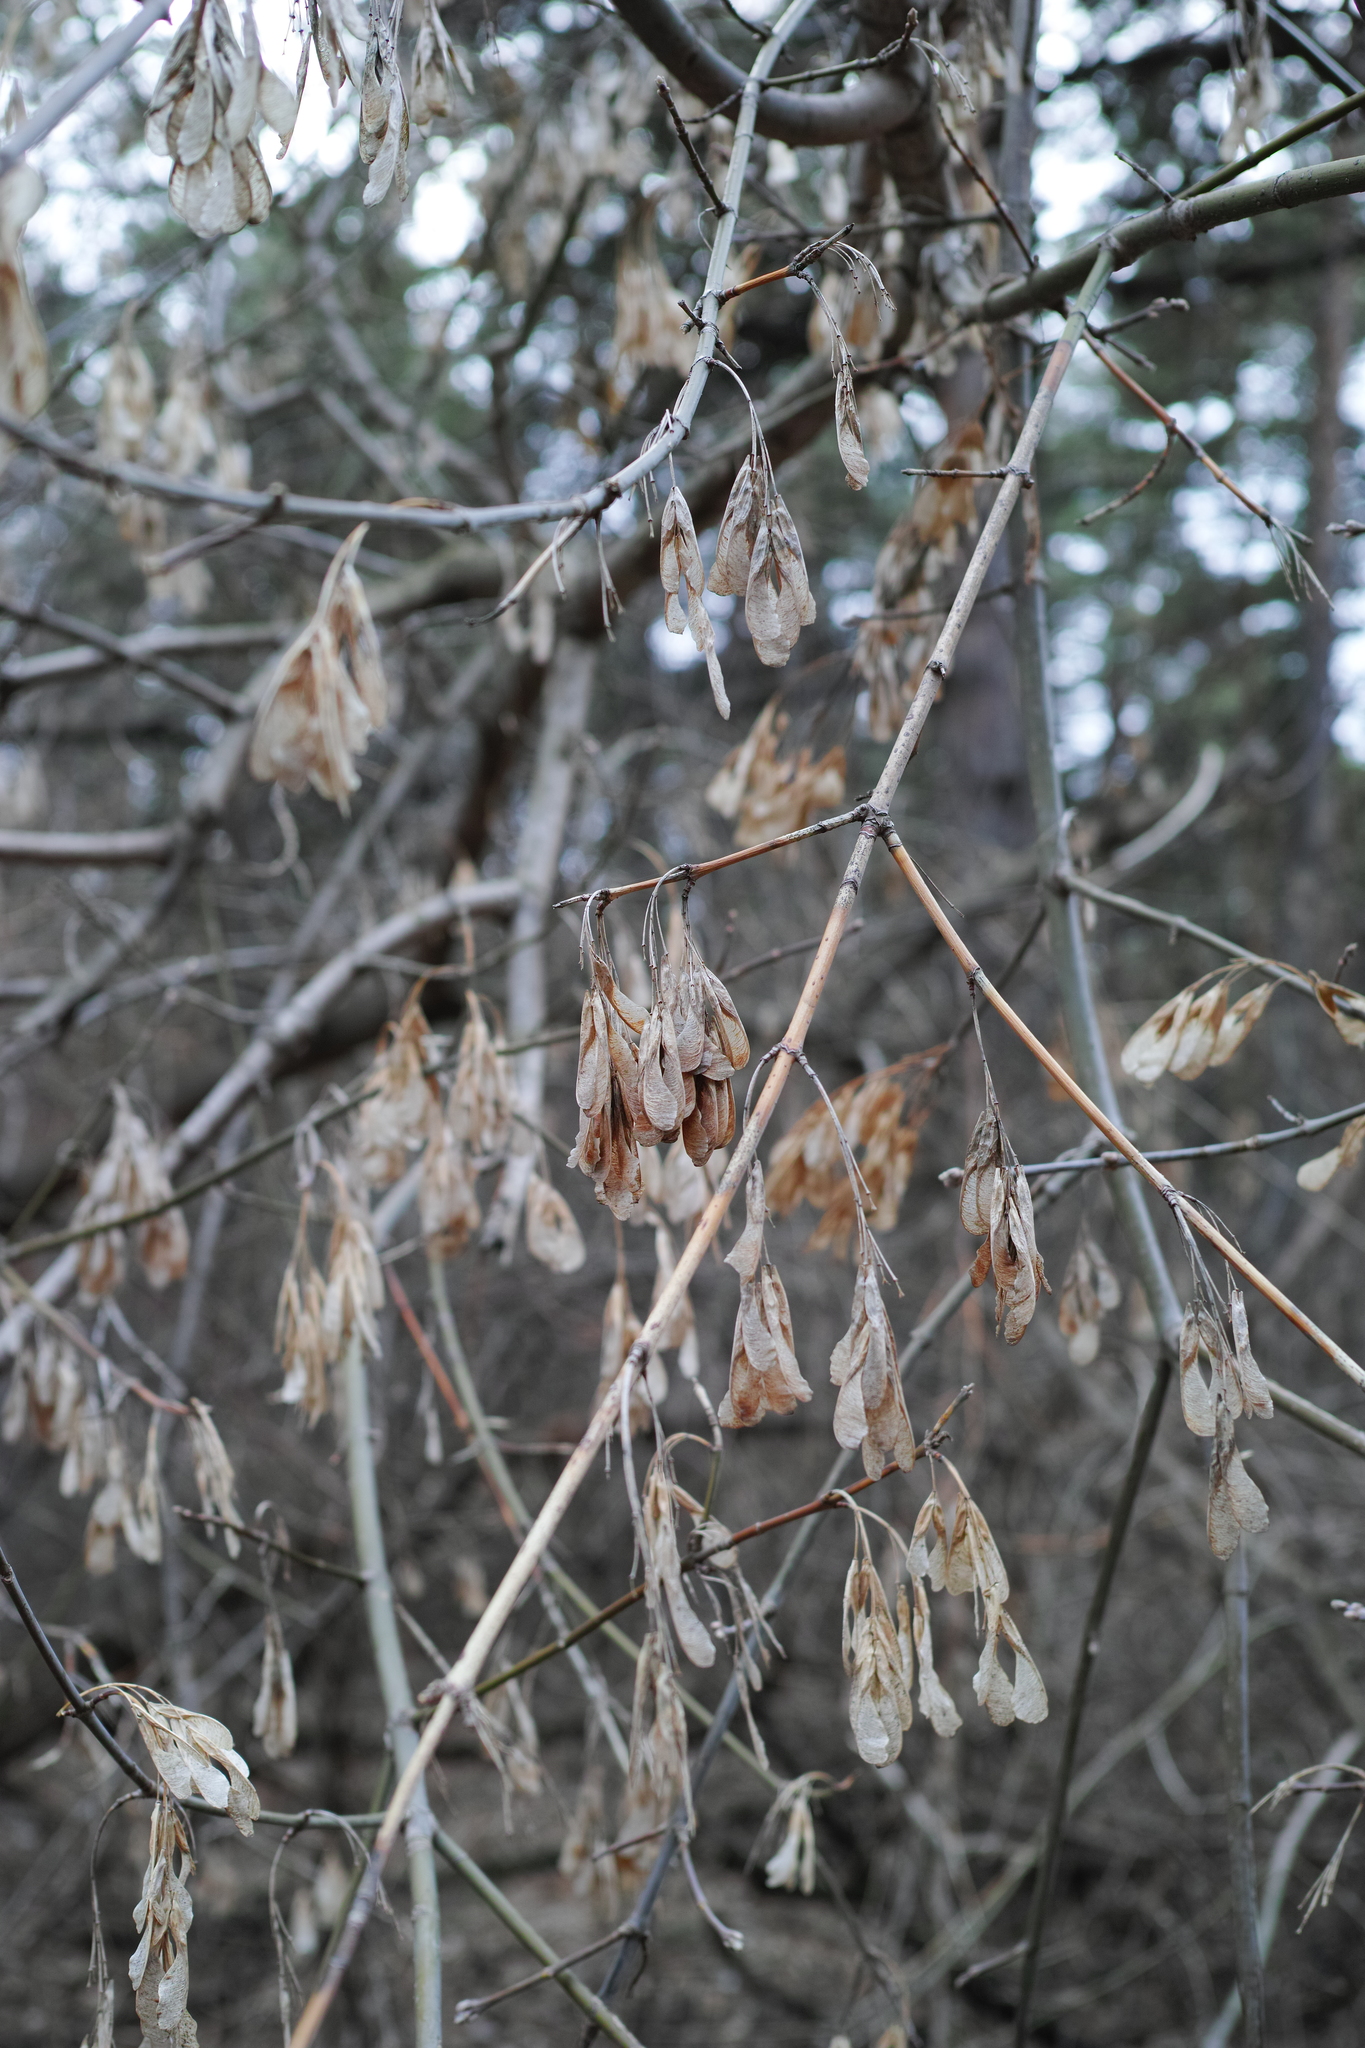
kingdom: Plantae
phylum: Tracheophyta
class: Magnoliopsida
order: Sapindales
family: Sapindaceae
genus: Acer
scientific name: Acer negundo
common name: Ashleaf maple
